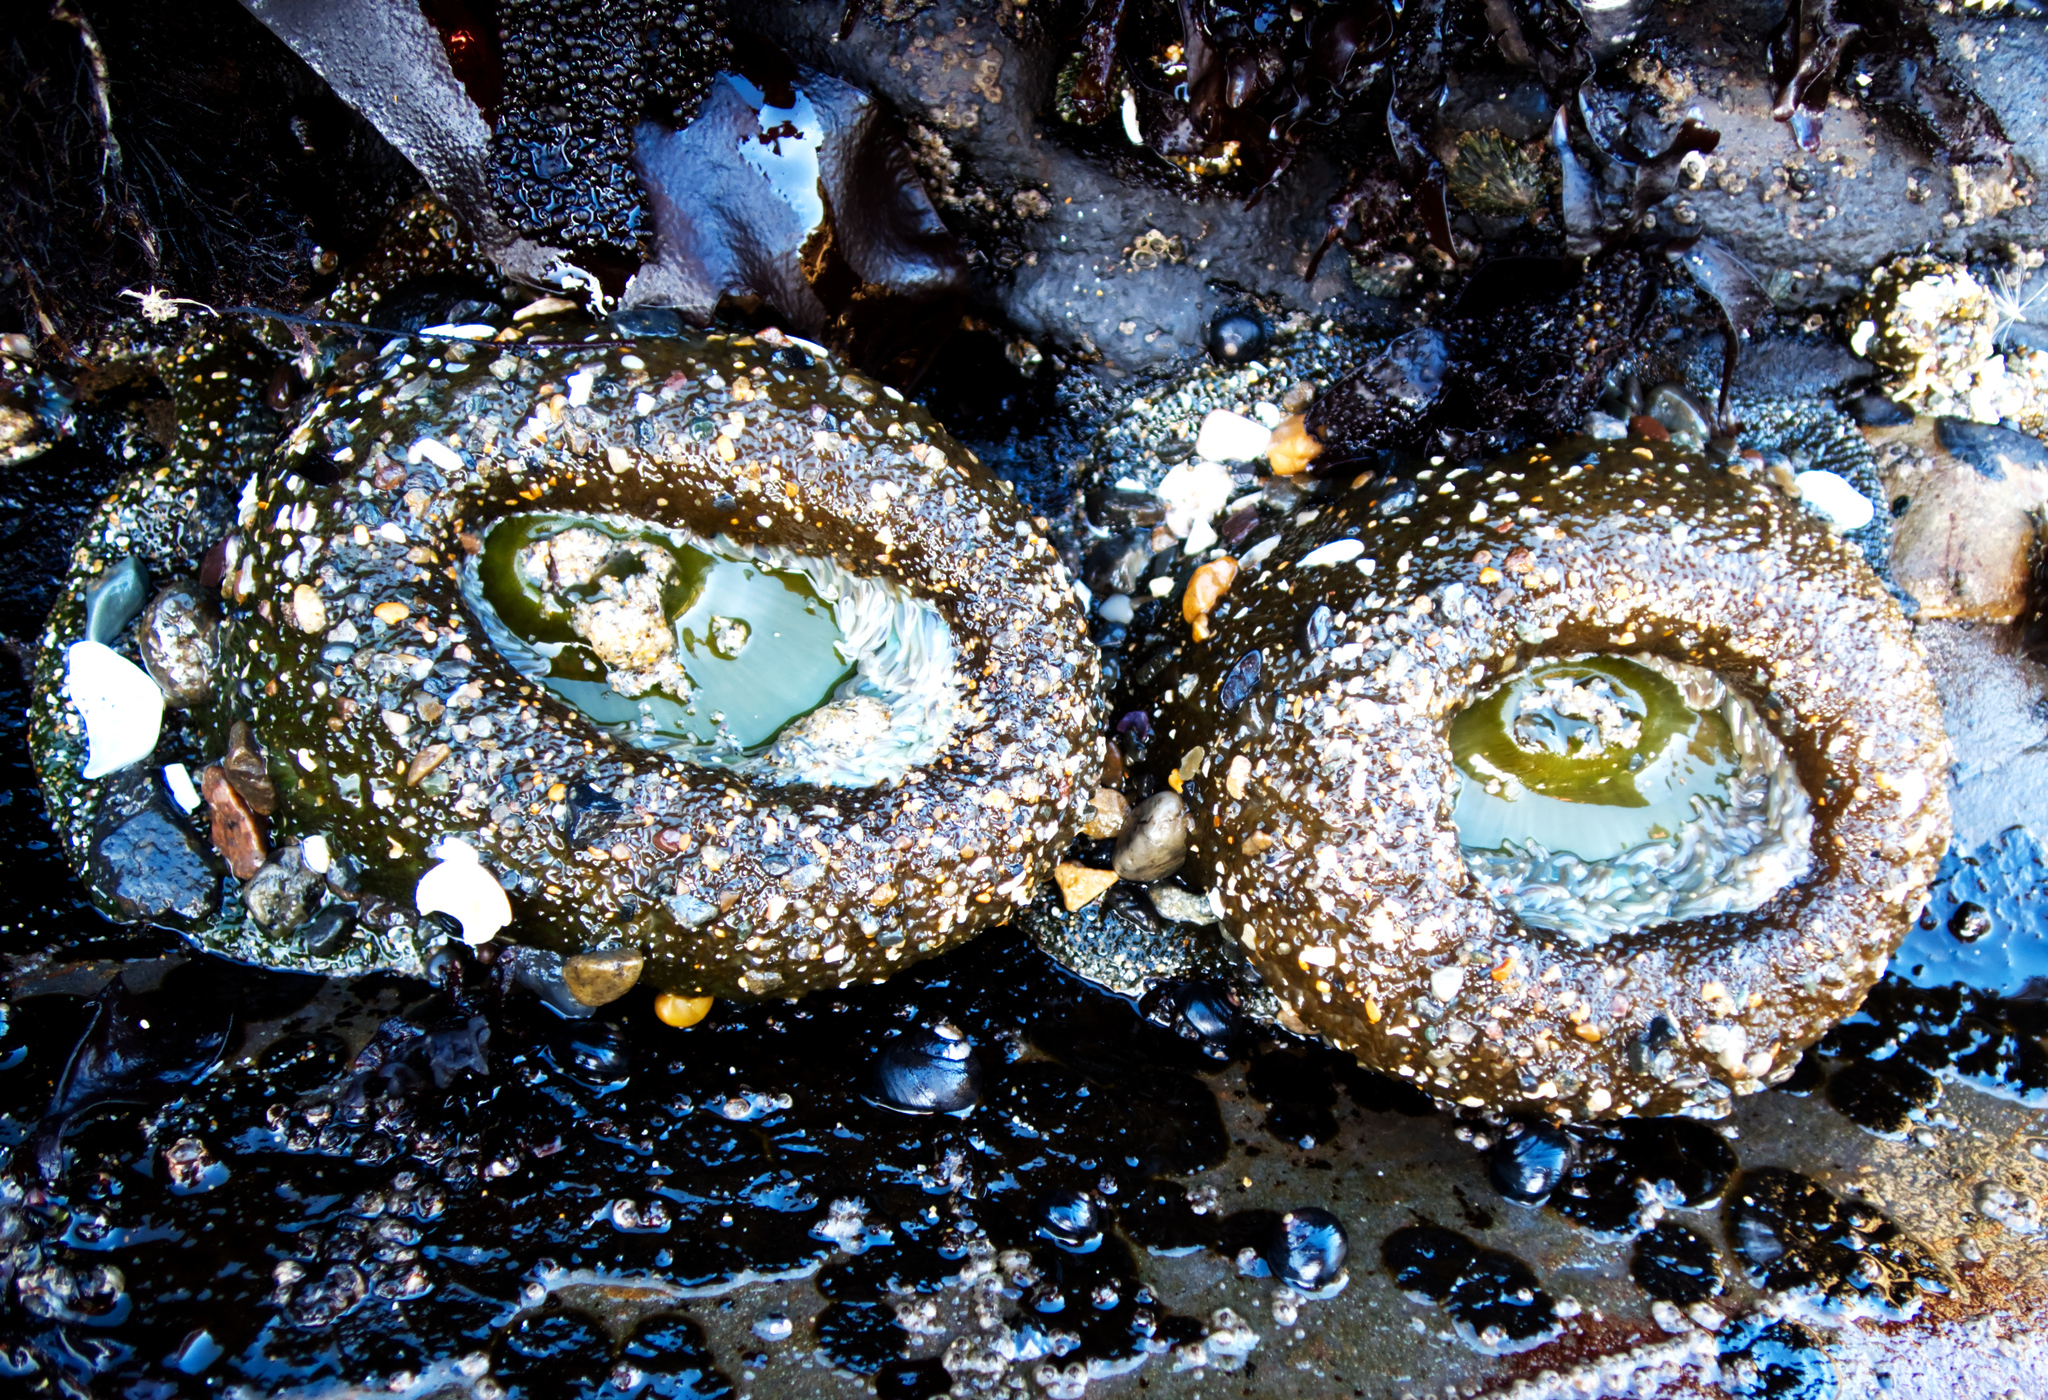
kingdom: Animalia
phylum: Cnidaria
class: Anthozoa
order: Actiniaria
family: Actiniidae
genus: Anthopleura
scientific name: Anthopleura xanthogrammica
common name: Giant green anemone
